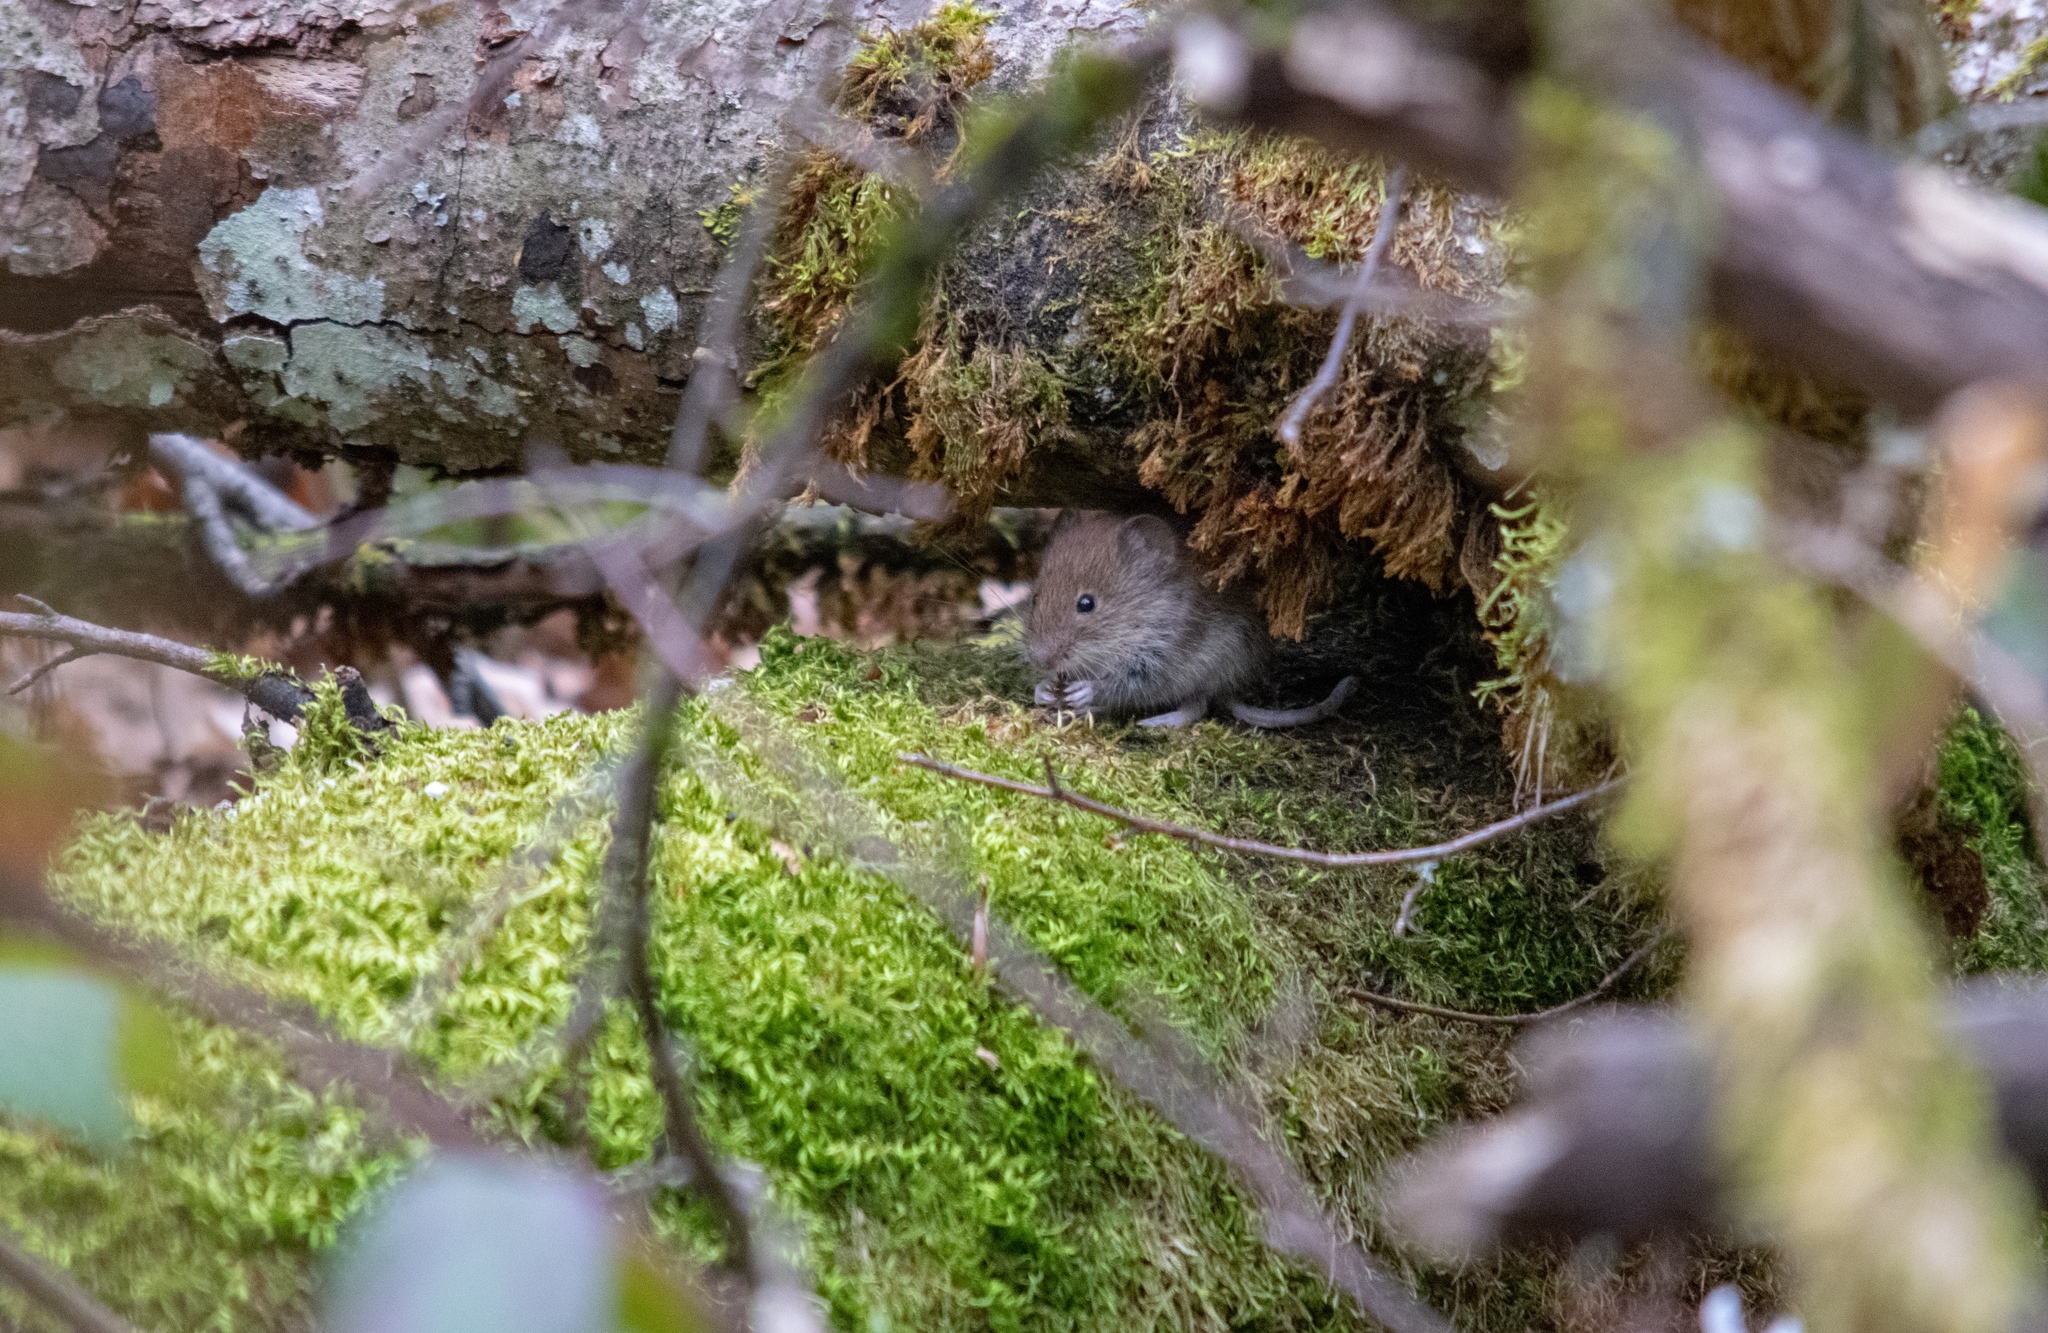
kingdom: Animalia
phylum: Chordata
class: Mammalia
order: Rodentia
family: Cricetidae
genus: Myodes
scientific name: Myodes glareolus
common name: Bank vole
